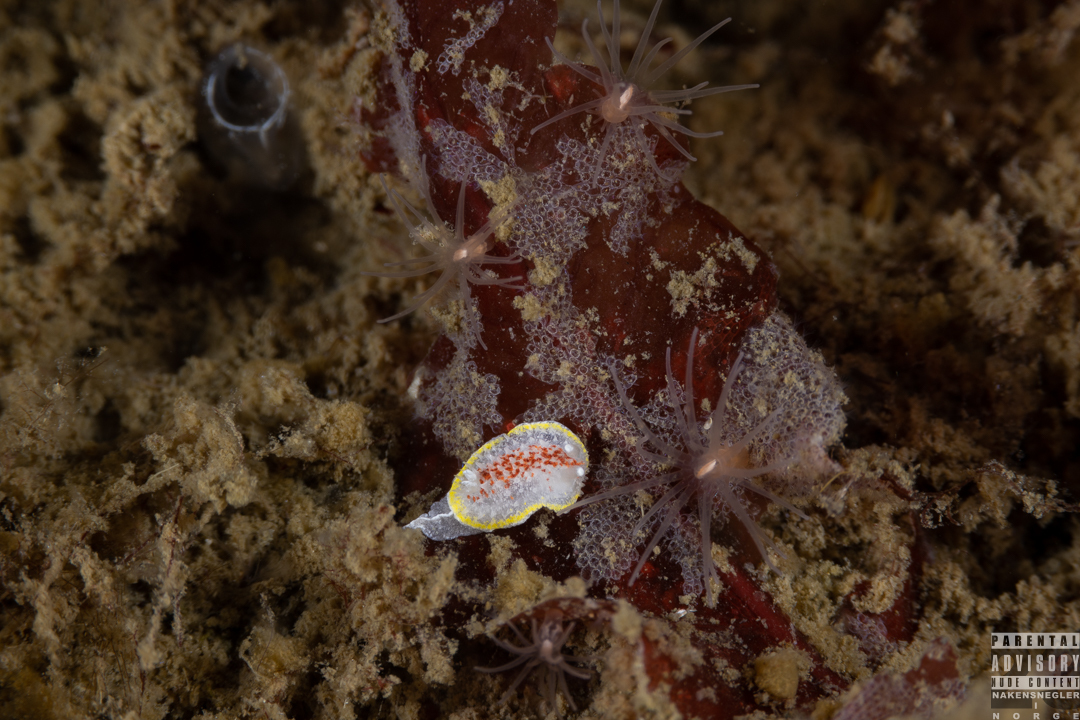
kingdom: Animalia
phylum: Mollusca
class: Gastropoda
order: Nudibranchia
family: Calycidorididae
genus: Diaphorodoris
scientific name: Diaphorodoris luteocincta
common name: Fried egg nudibranch
